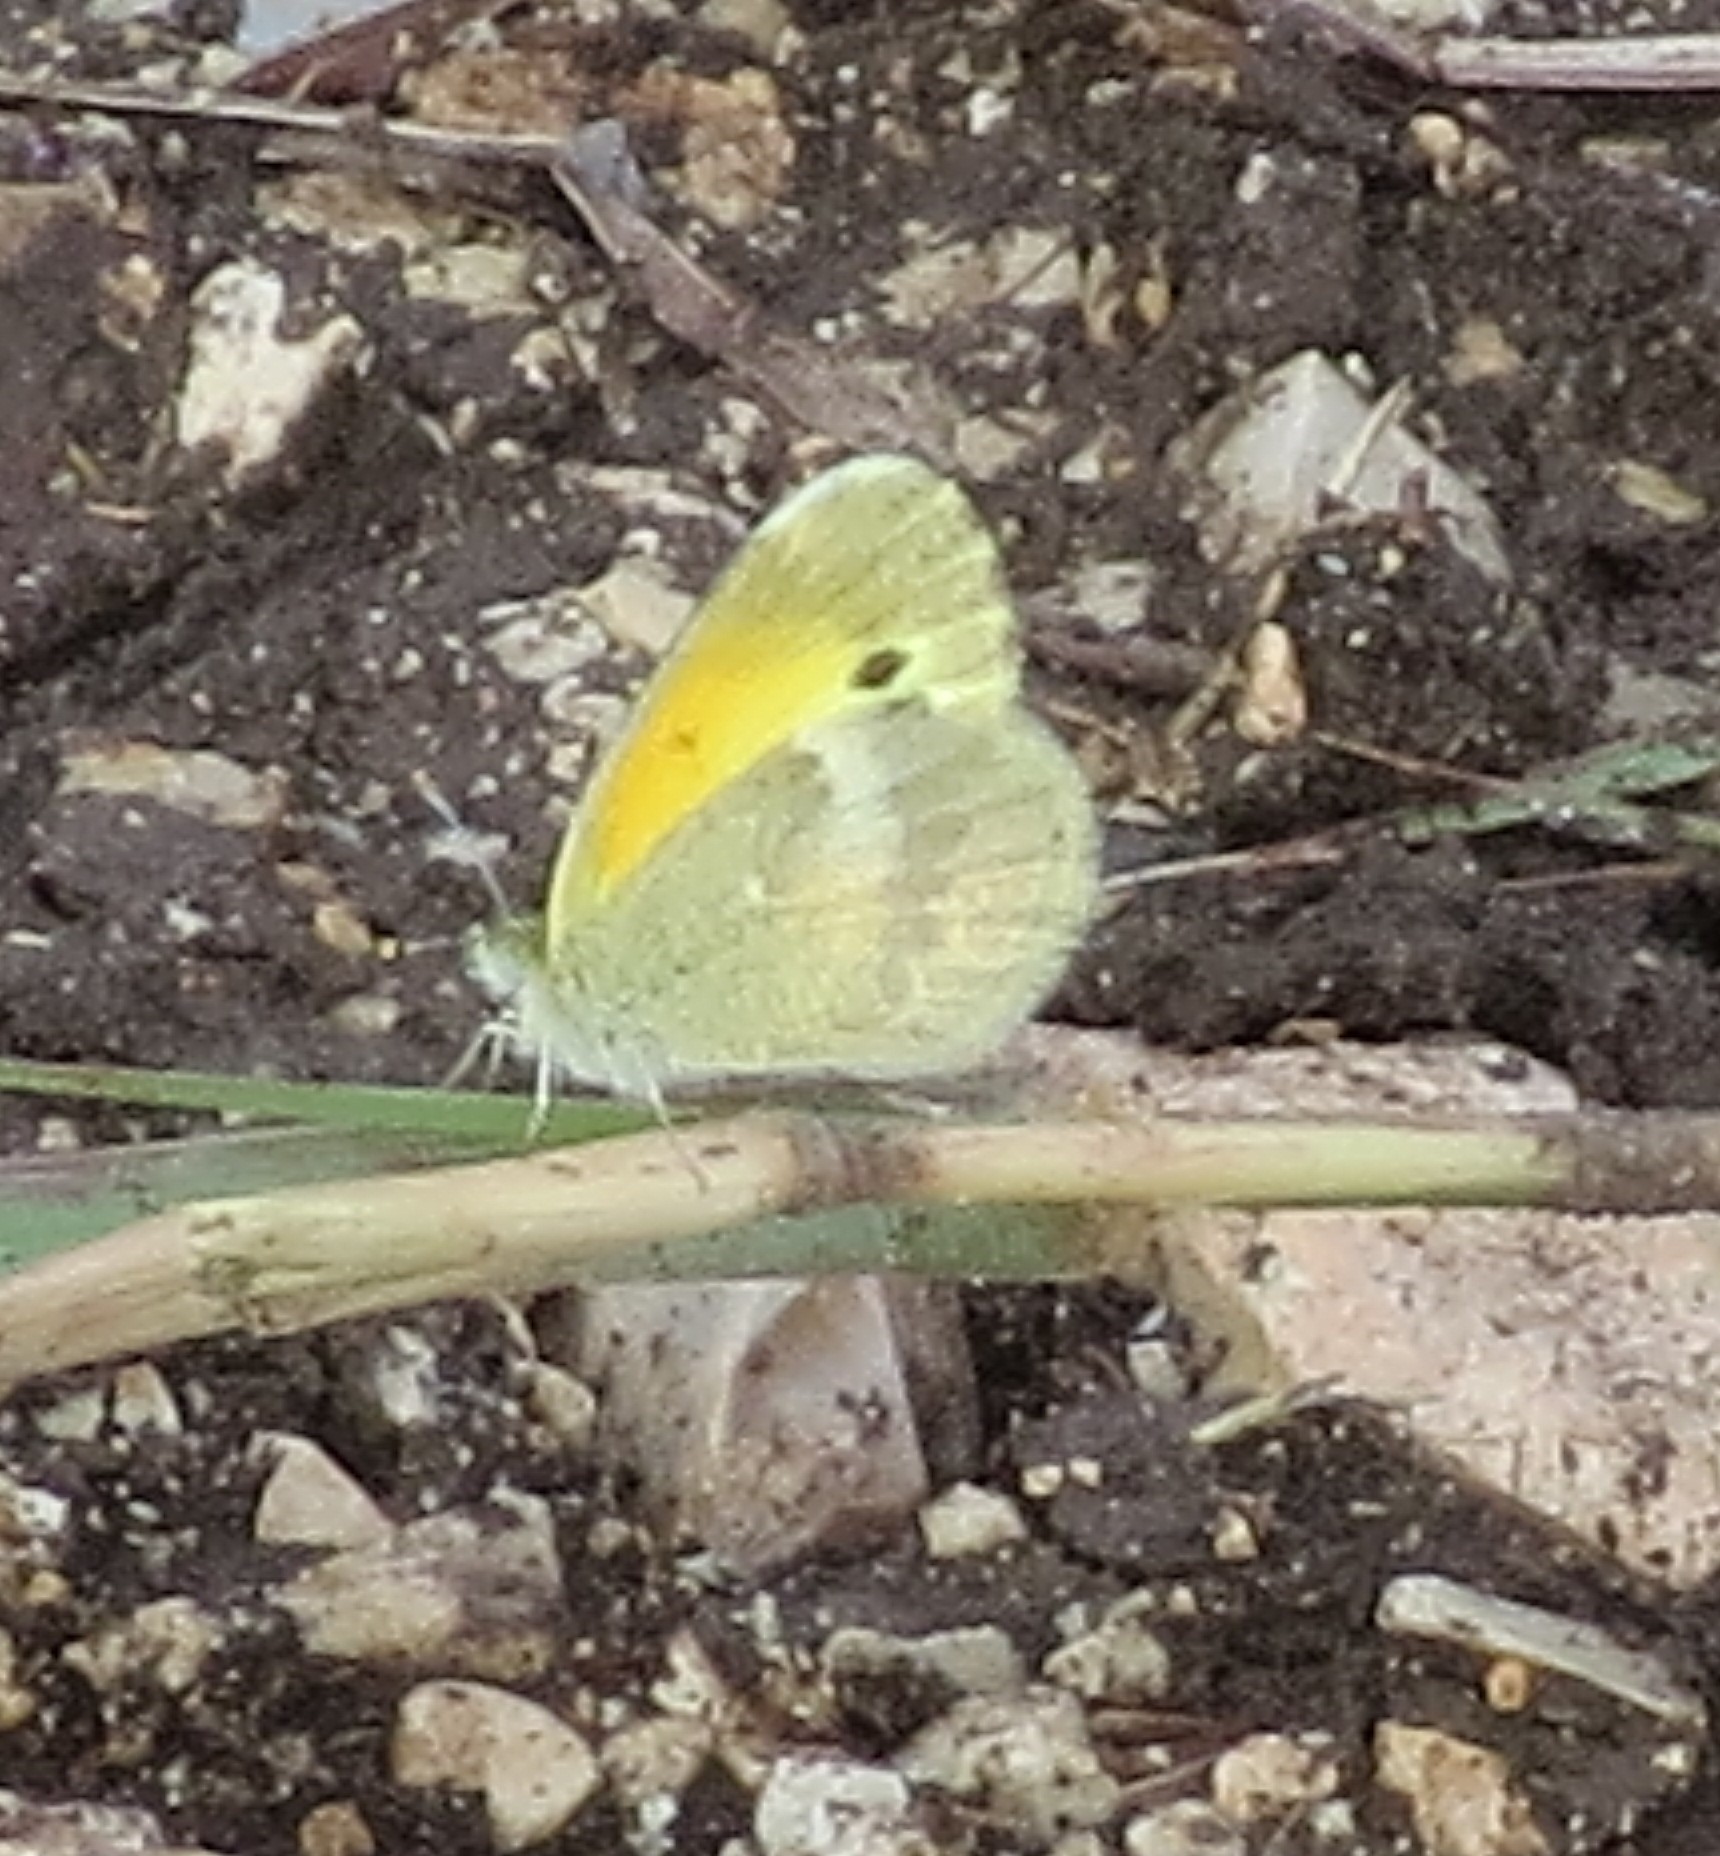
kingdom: Animalia
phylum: Arthropoda
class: Insecta
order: Lepidoptera
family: Pieridae
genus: Nathalis
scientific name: Nathalis iole
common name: Dainty sulphur
